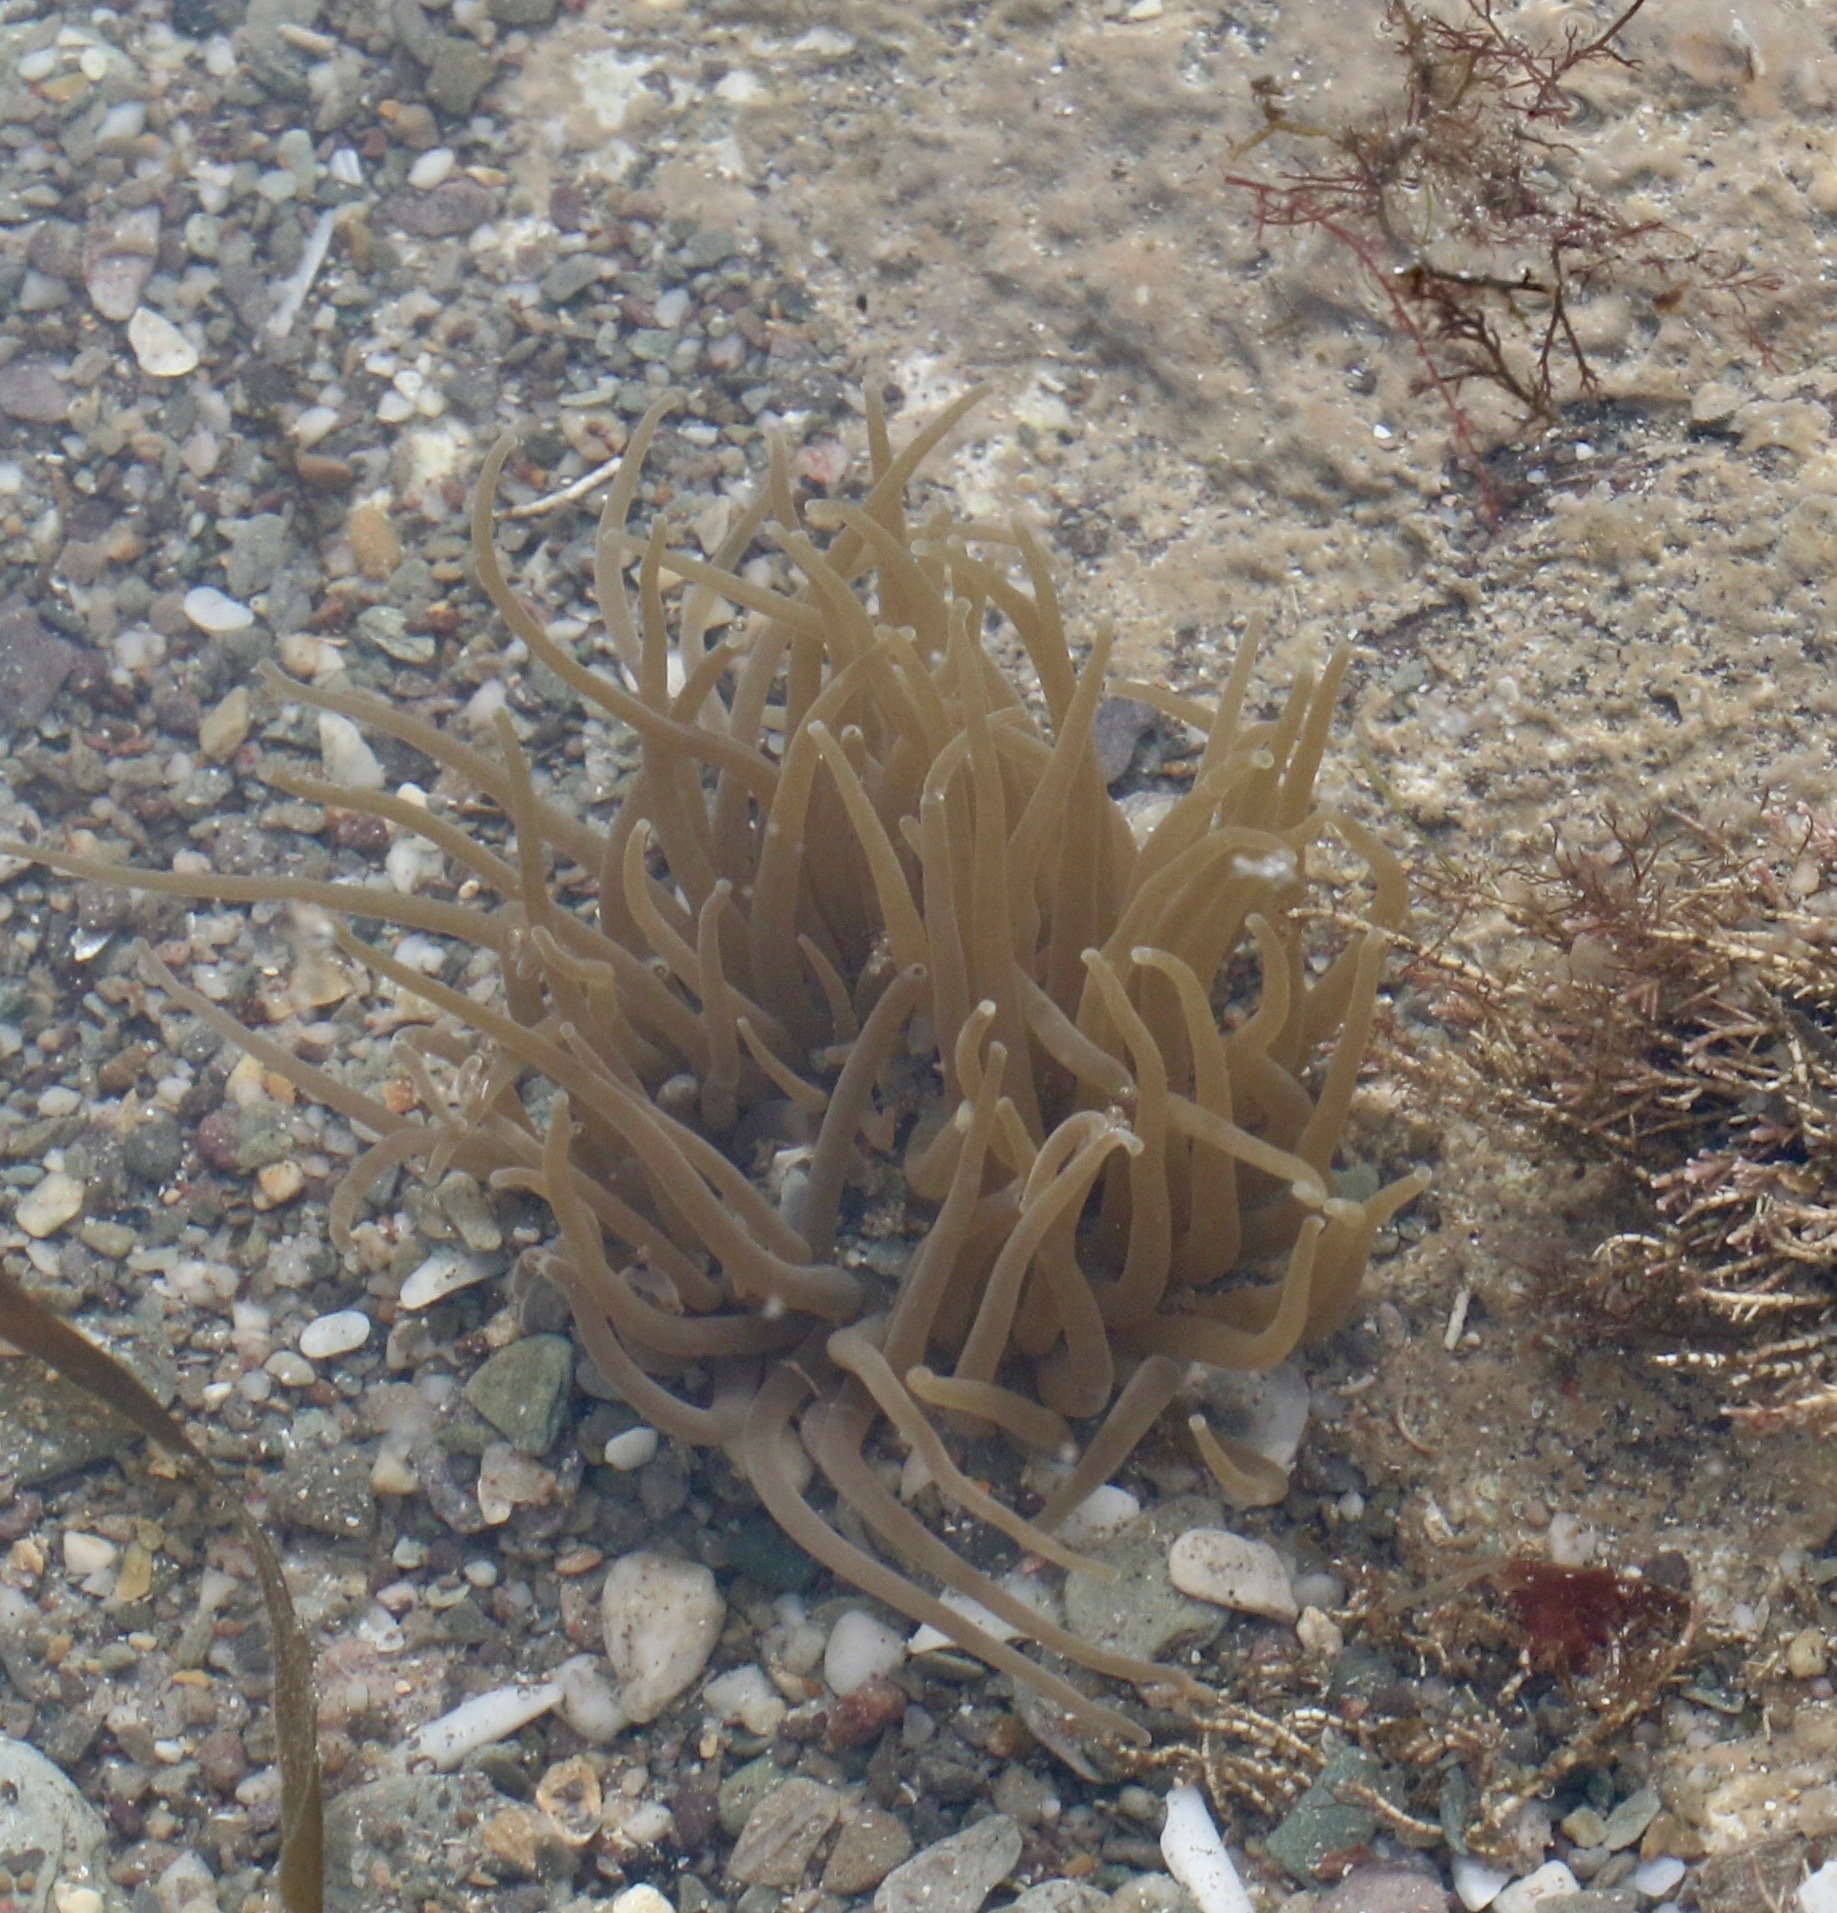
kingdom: Animalia
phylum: Cnidaria
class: Anthozoa
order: Actiniaria
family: Actiniidae
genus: Anemonia
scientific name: Anemonia viridis
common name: Snakelocks anemone
